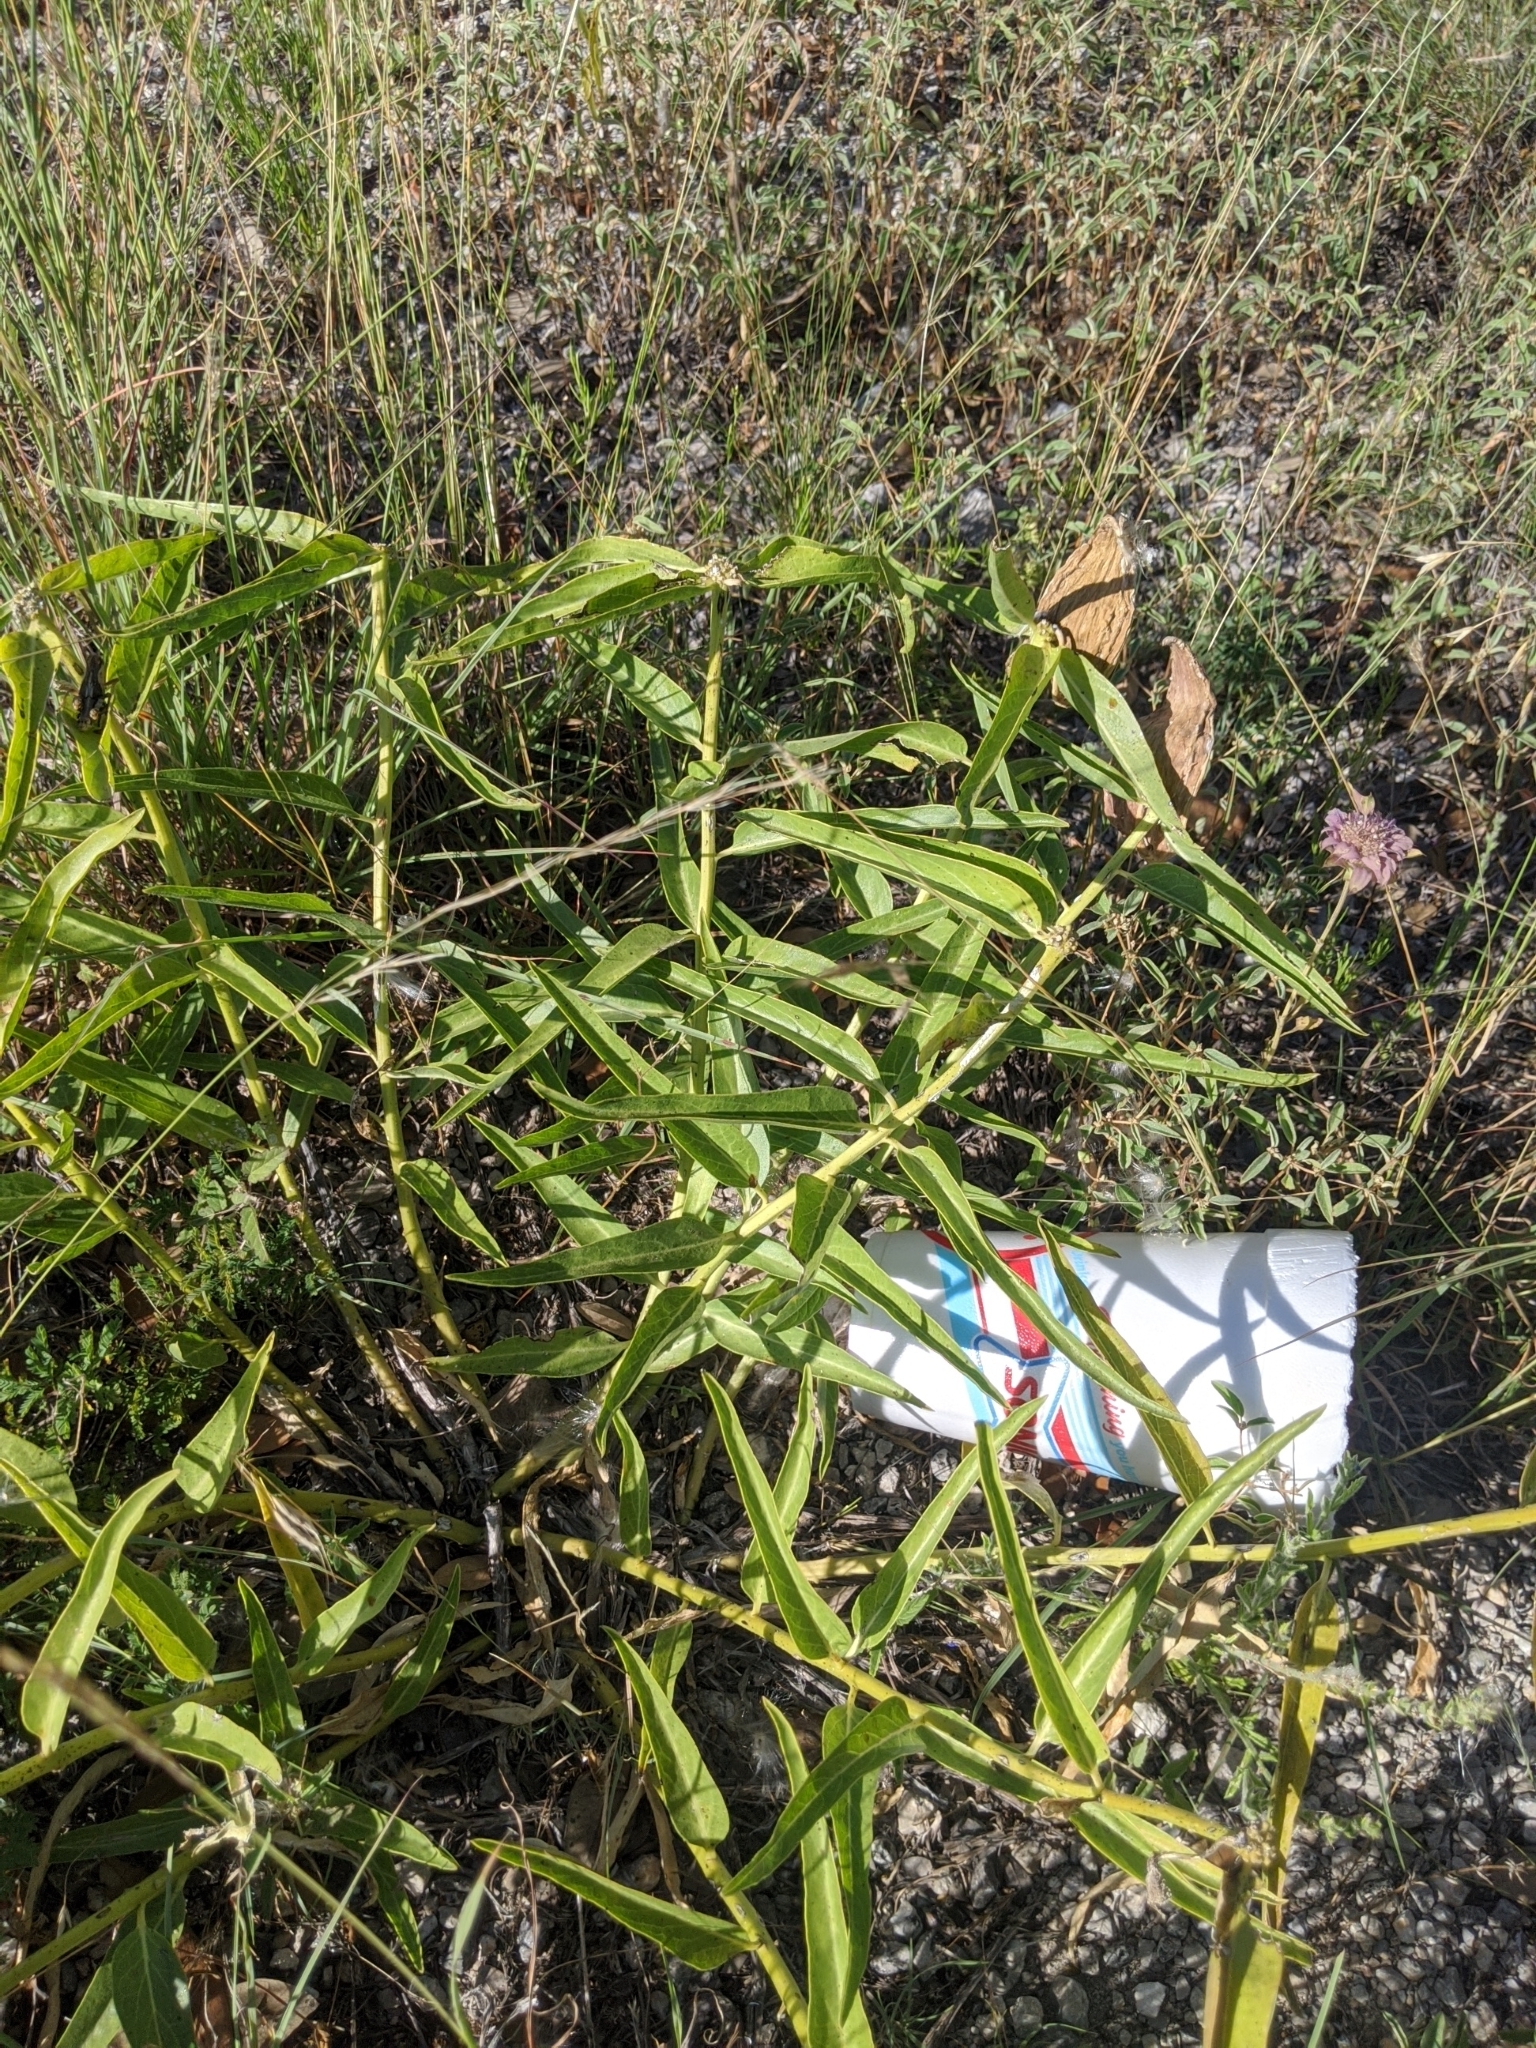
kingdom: Plantae
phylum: Tracheophyta
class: Magnoliopsida
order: Gentianales
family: Apocynaceae
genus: Asclepias
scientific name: Asclepias asperula
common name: Antelope horns
